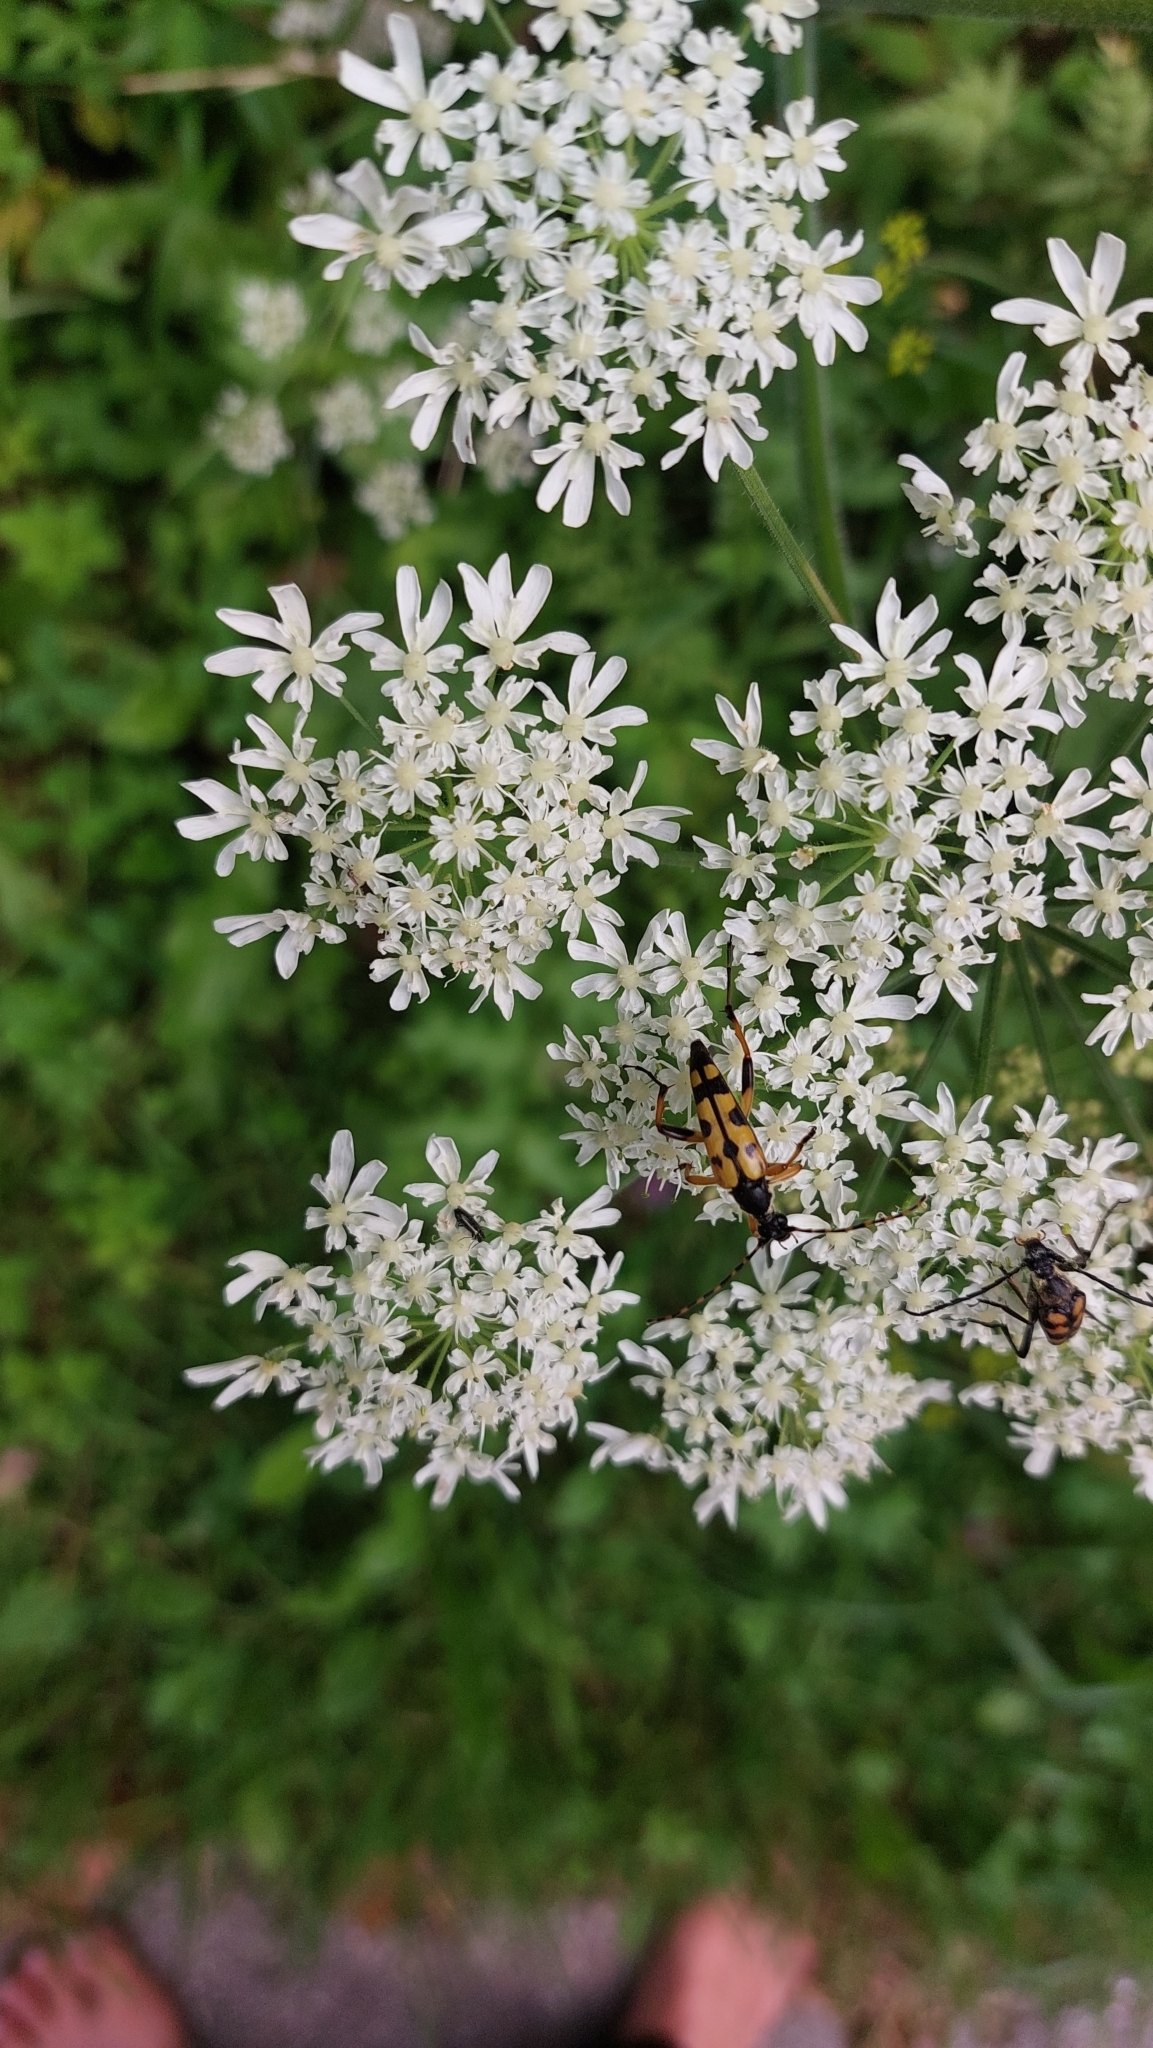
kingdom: Animalia
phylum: Arthropoda
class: Insecta
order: Coleoptera
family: Cerambycidae
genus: Rutpela
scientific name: Rutpela maculata
